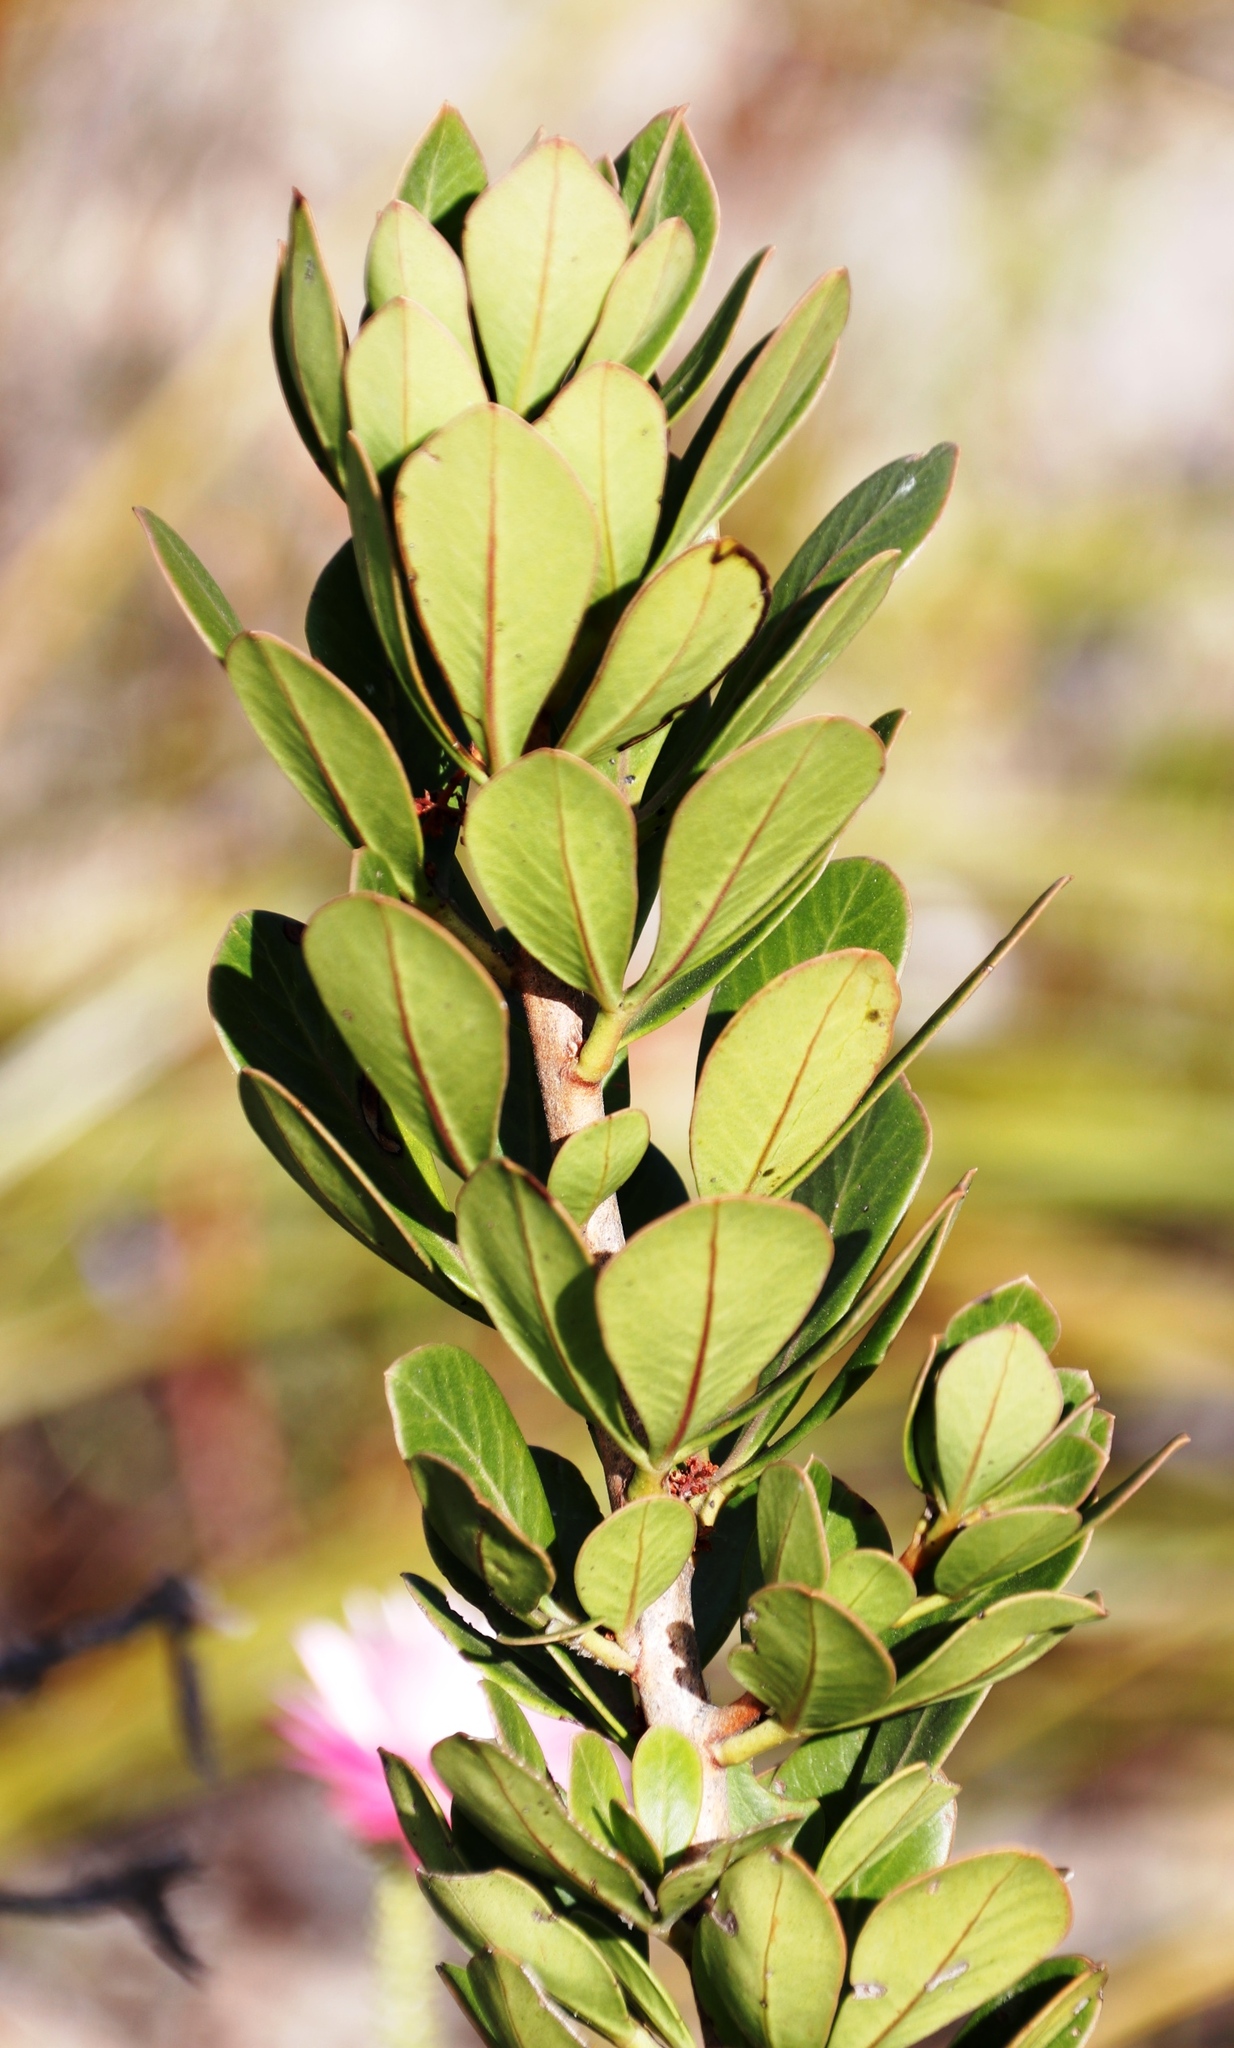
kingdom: Plantae
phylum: Tracheophyta
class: Magnoliopsida
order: Sapindales
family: Anacardiaceae
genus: Searsia
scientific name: Searsia scytophylla
